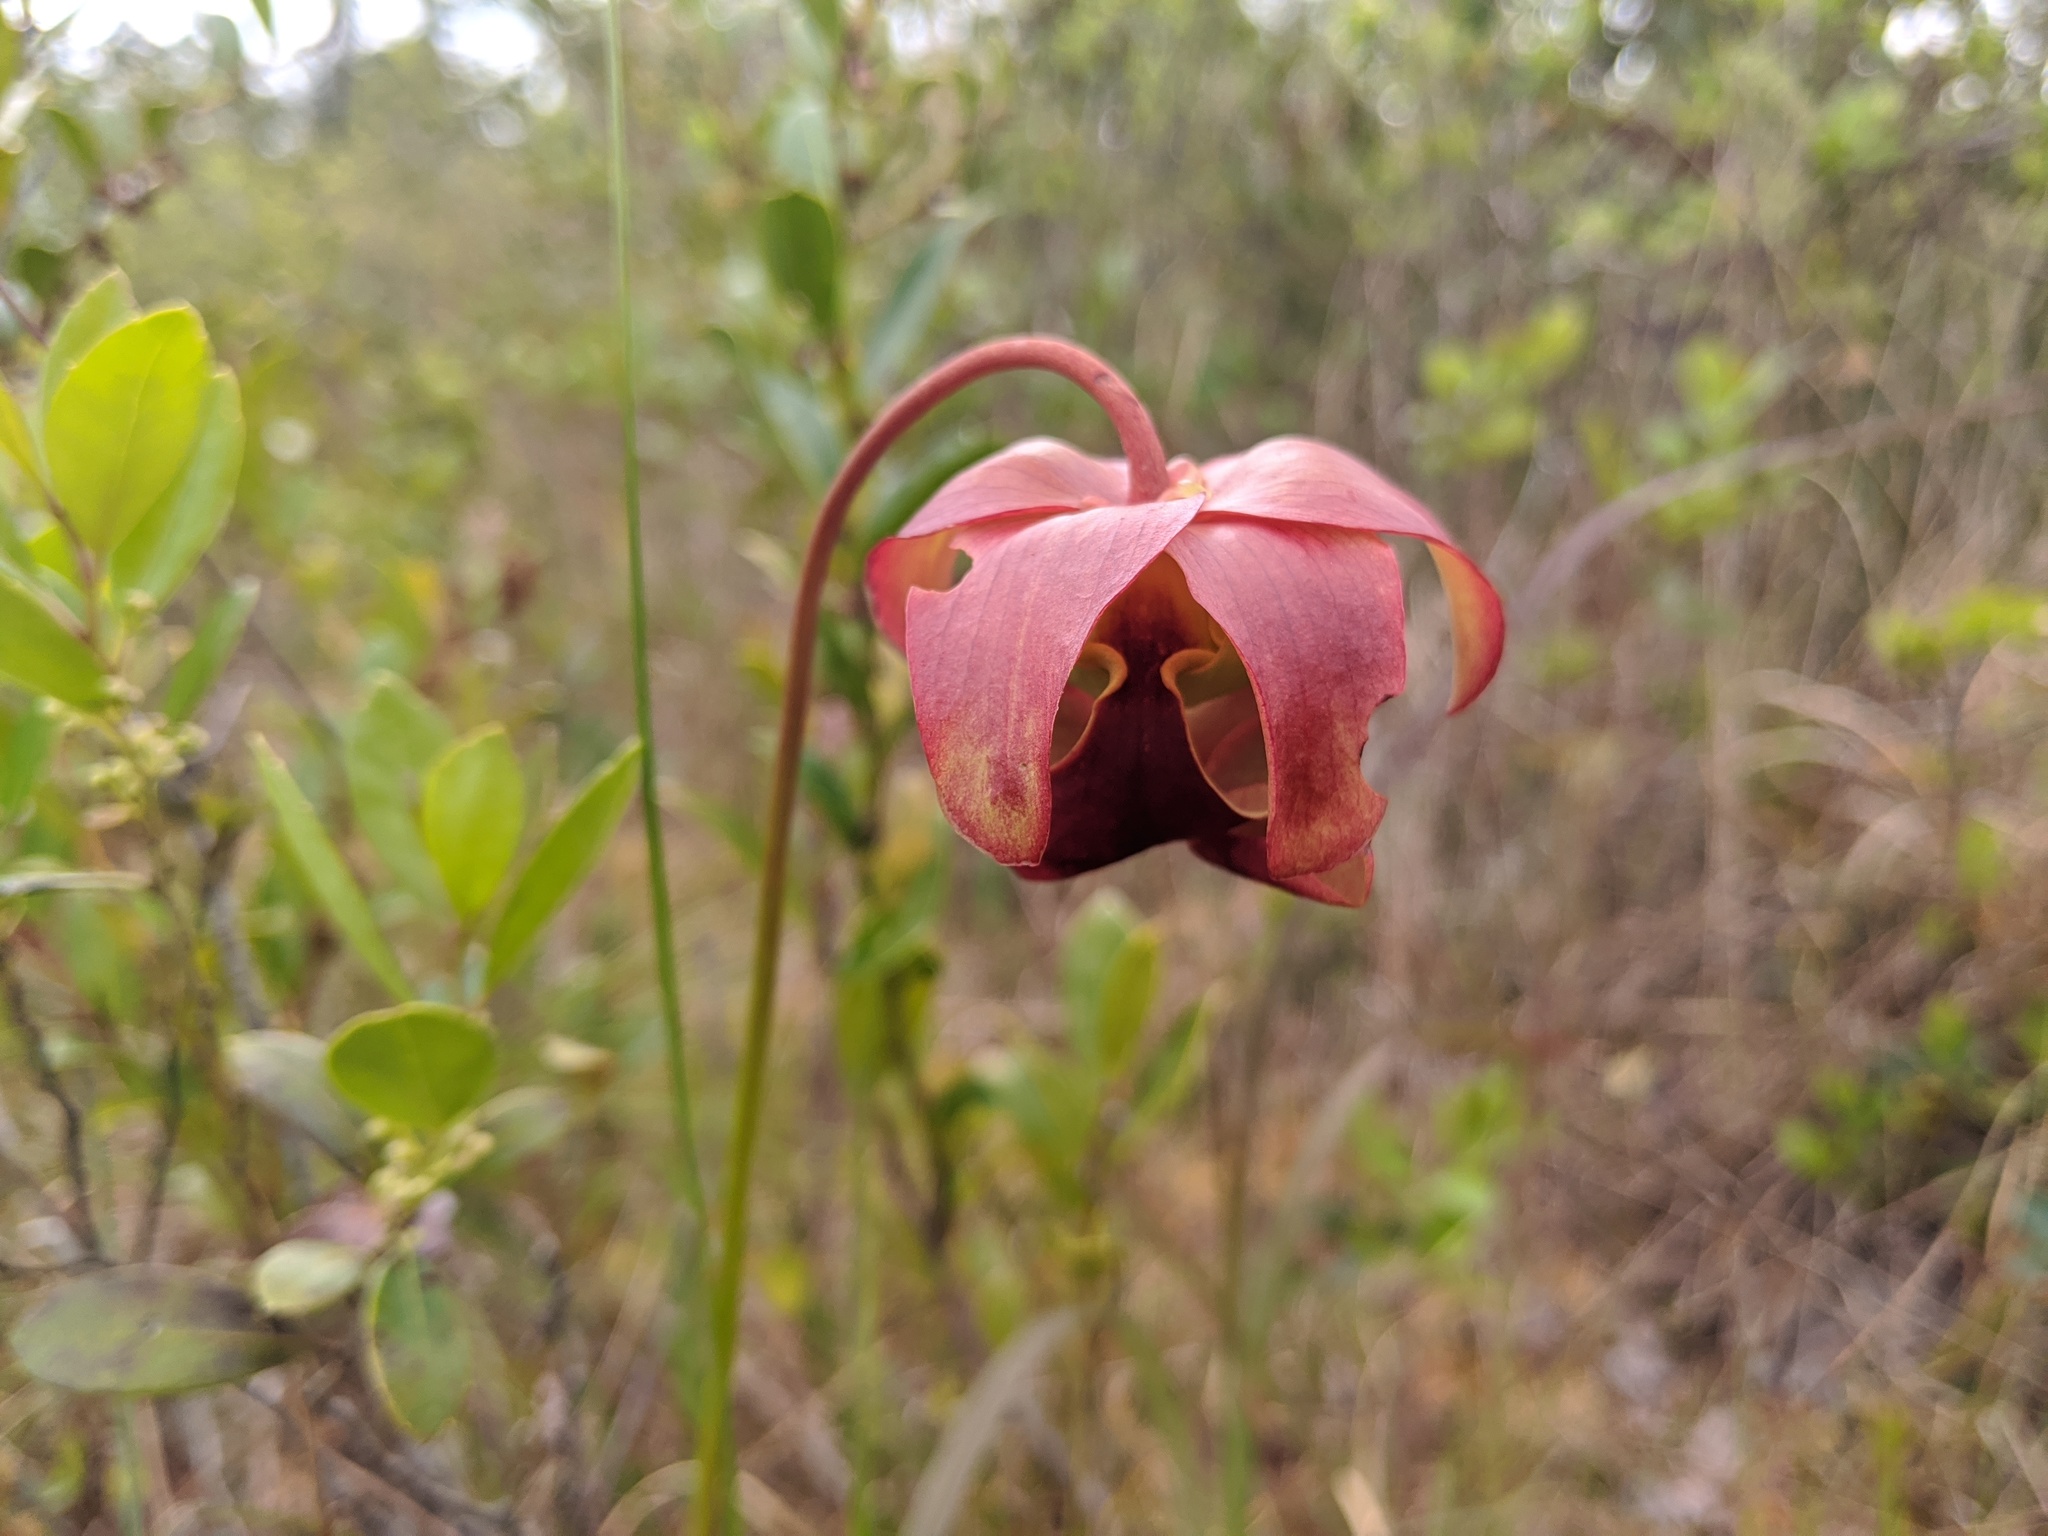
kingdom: Plantae
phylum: Tracheophyta
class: Magnoliopsida
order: Ericales
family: Sarraceniaceae
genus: Sarracenia
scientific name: Sarracenia rubra
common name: Sweet pitcherplant
